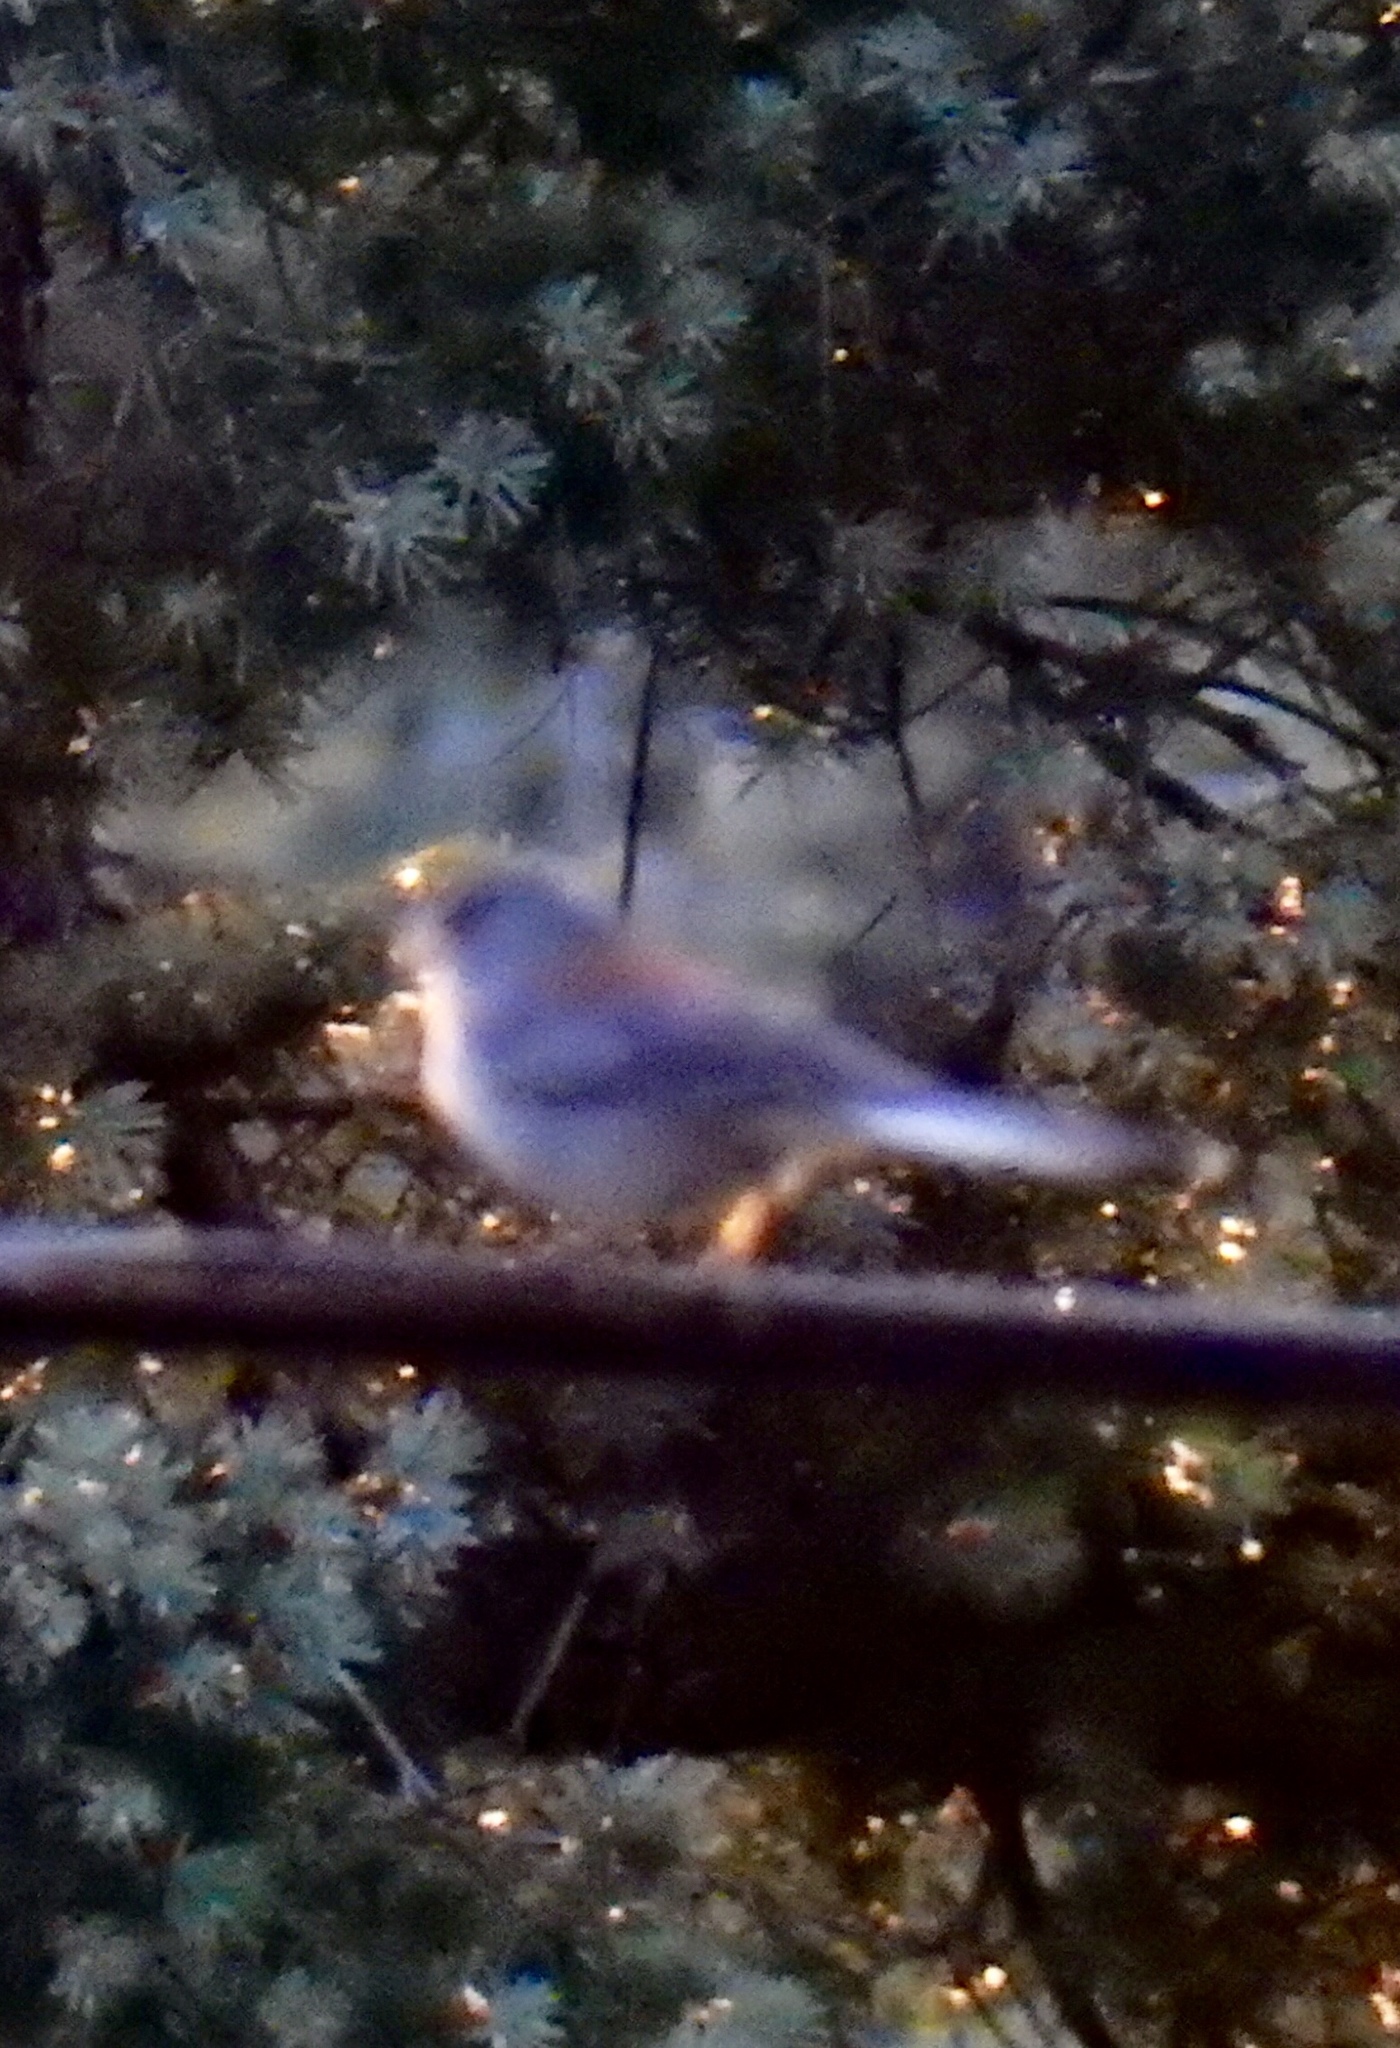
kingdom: Animalia
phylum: Chordata
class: Aves
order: Passeriformes
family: Passerellidae
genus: Junco
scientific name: Junco hyemalis
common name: Dark-eyed junco
